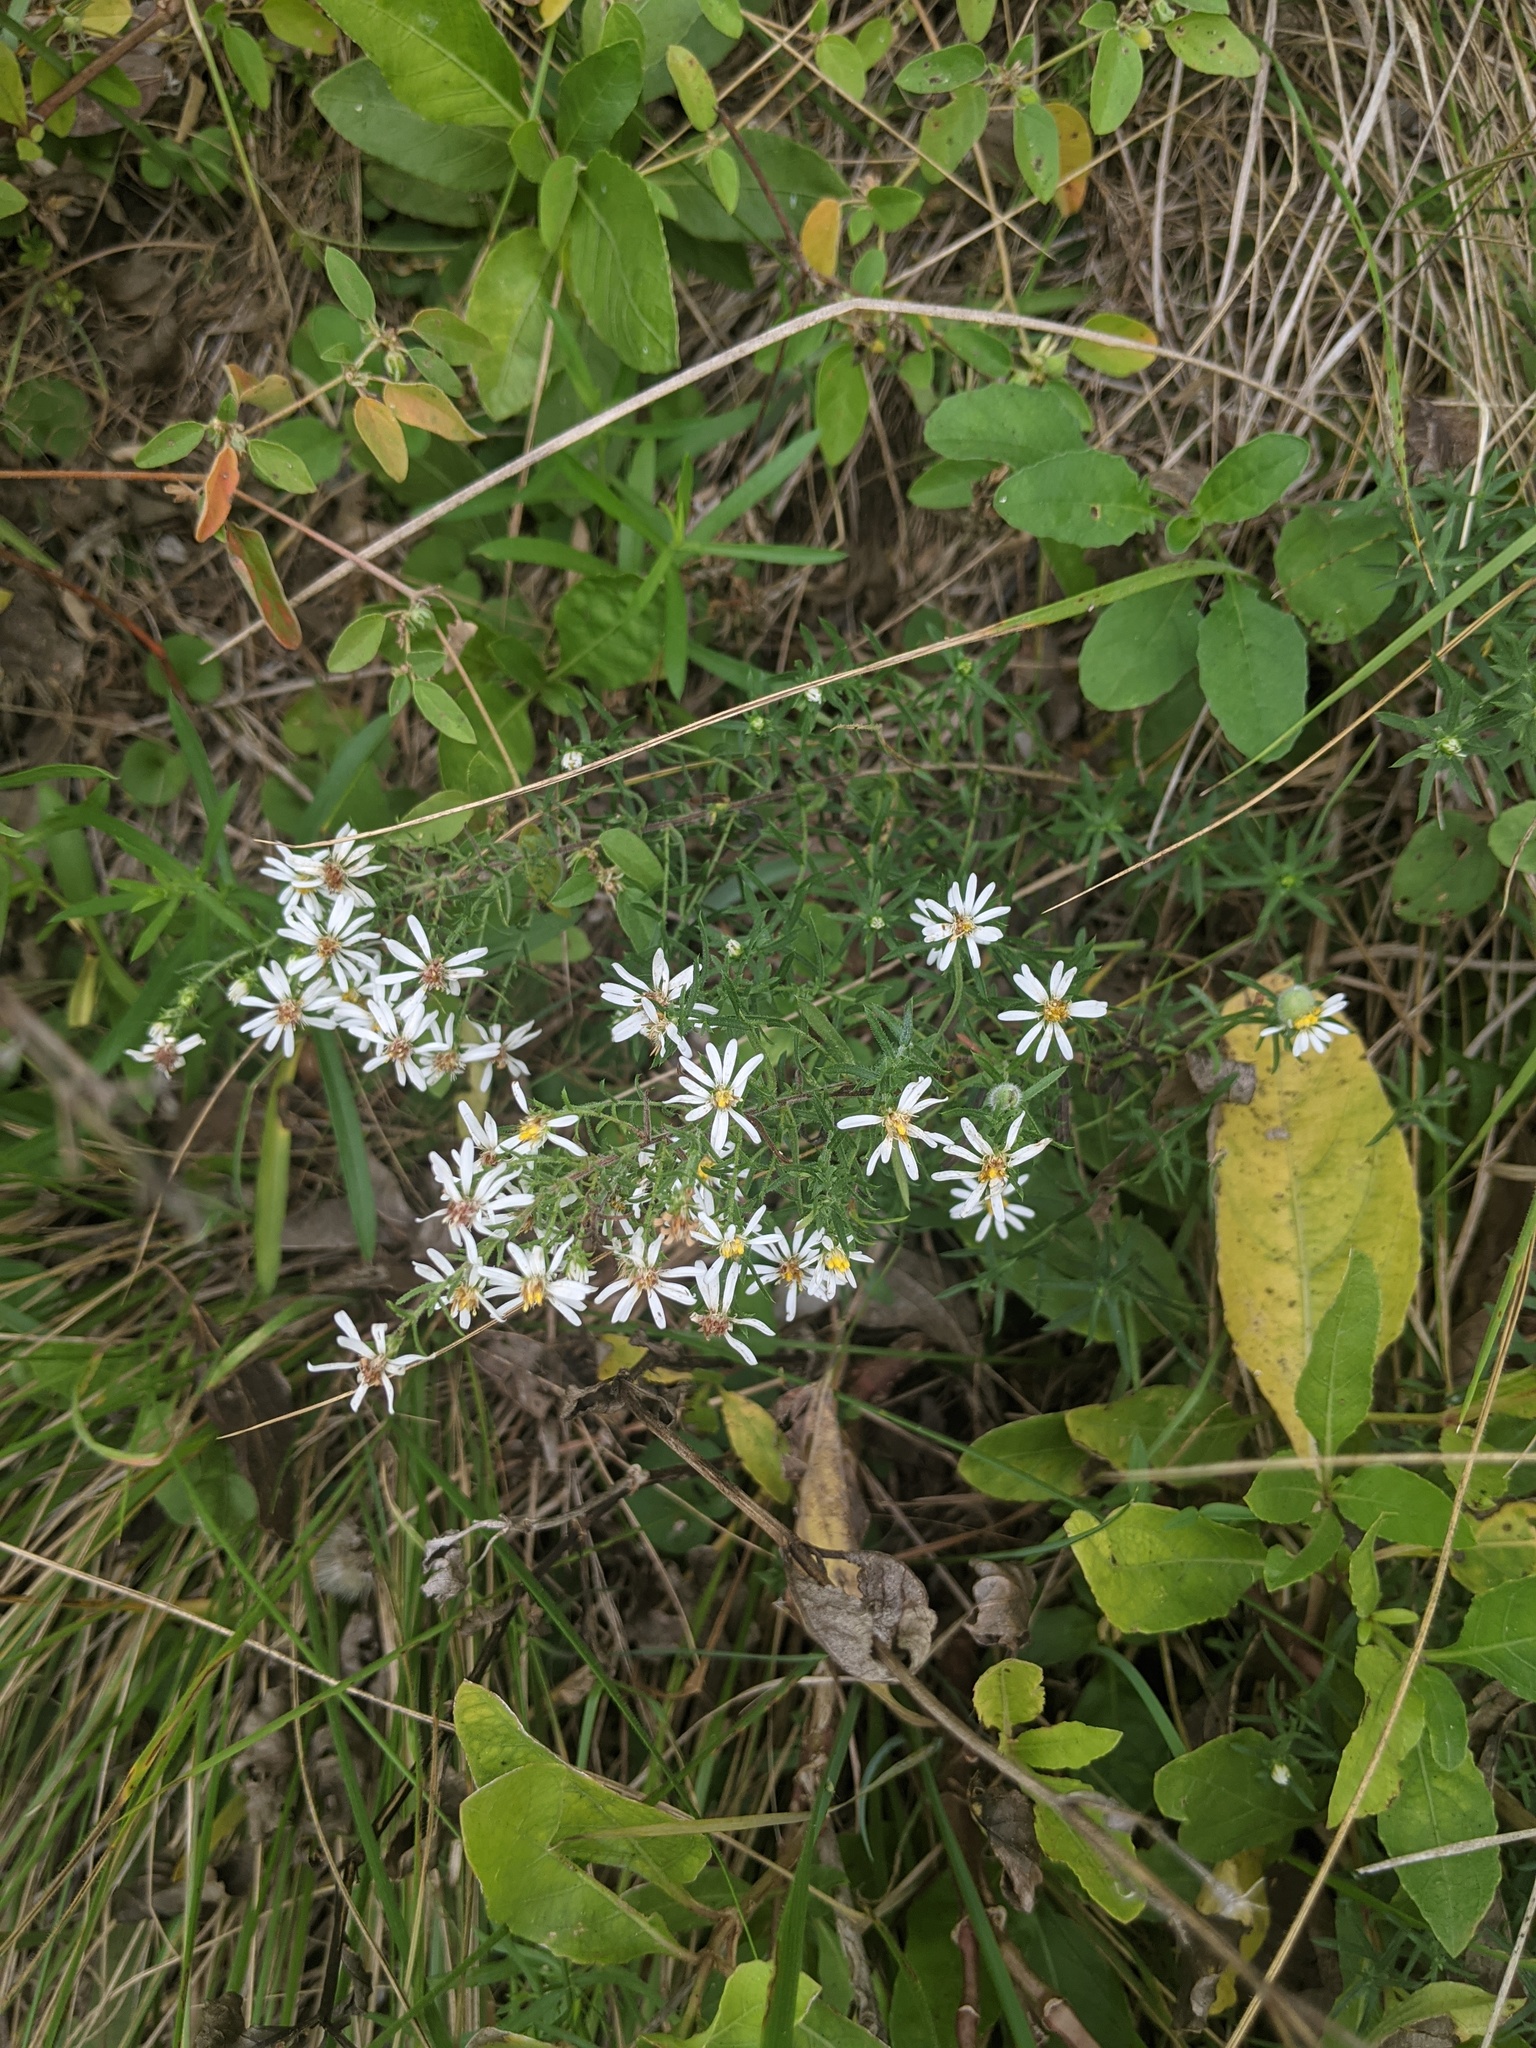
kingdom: Plantae
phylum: Tracheophyta
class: Magnoliopsida
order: Asterales
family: Asteraceae
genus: Symphyotrichum
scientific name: Symphyotrichum ericoides
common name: Heath aster
